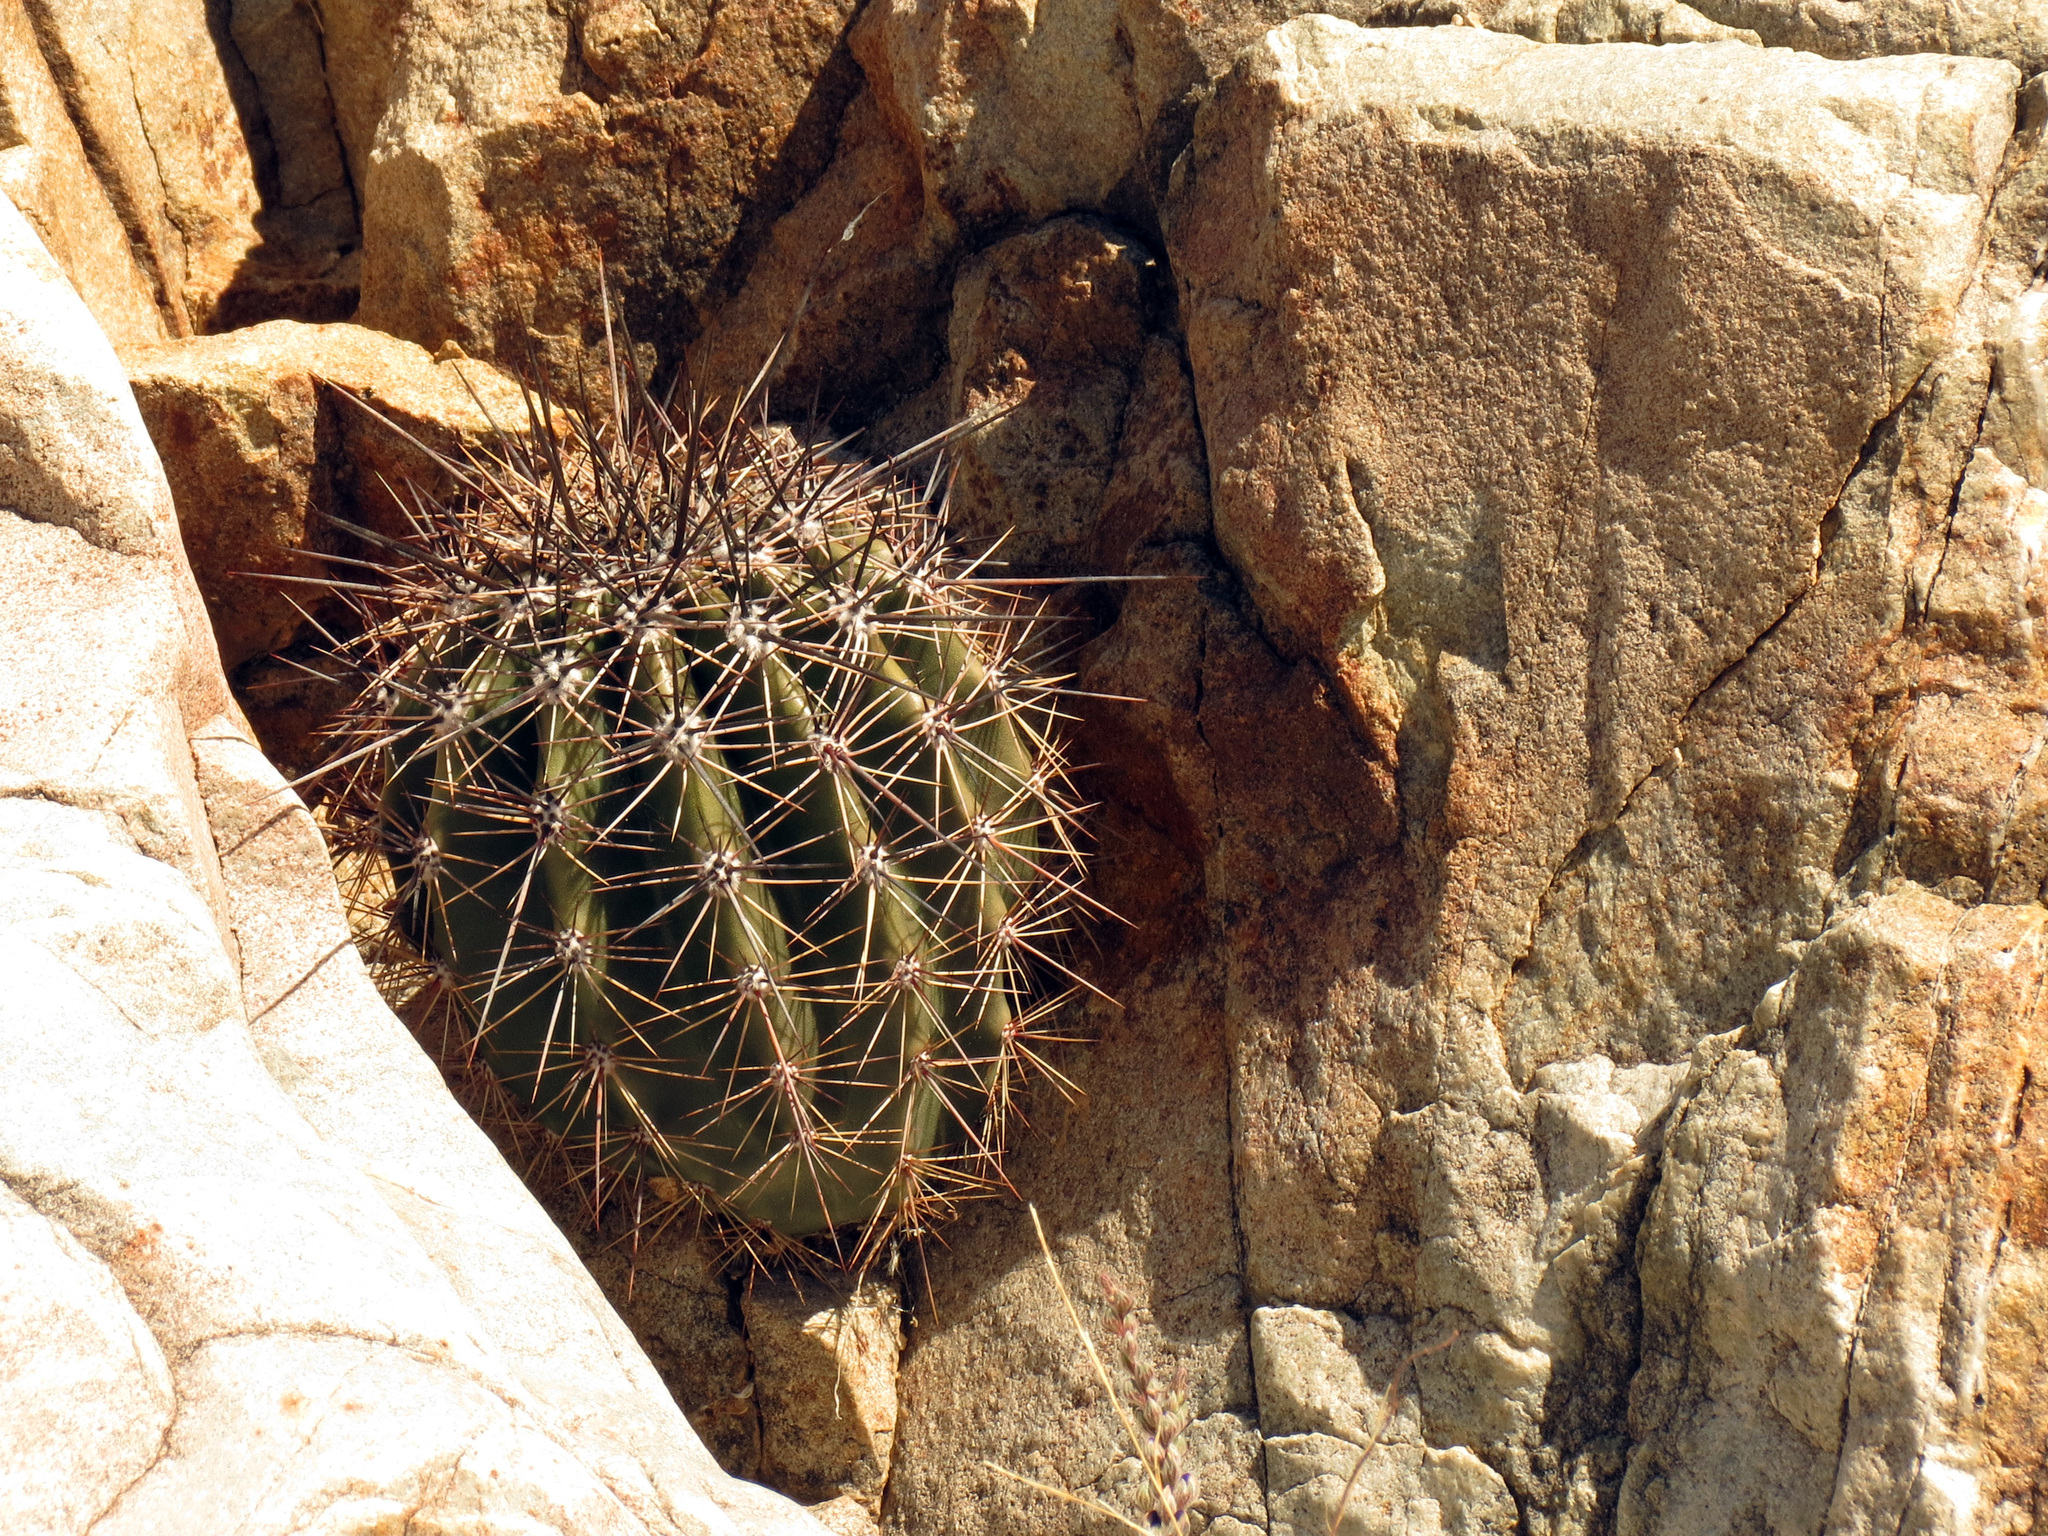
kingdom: Plantae
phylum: Tracheophyta
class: Magnoliopsida
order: Caryophyllales
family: Cactaceae
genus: Carnegiea
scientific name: Carnegiea gigantea
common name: Saguaro
